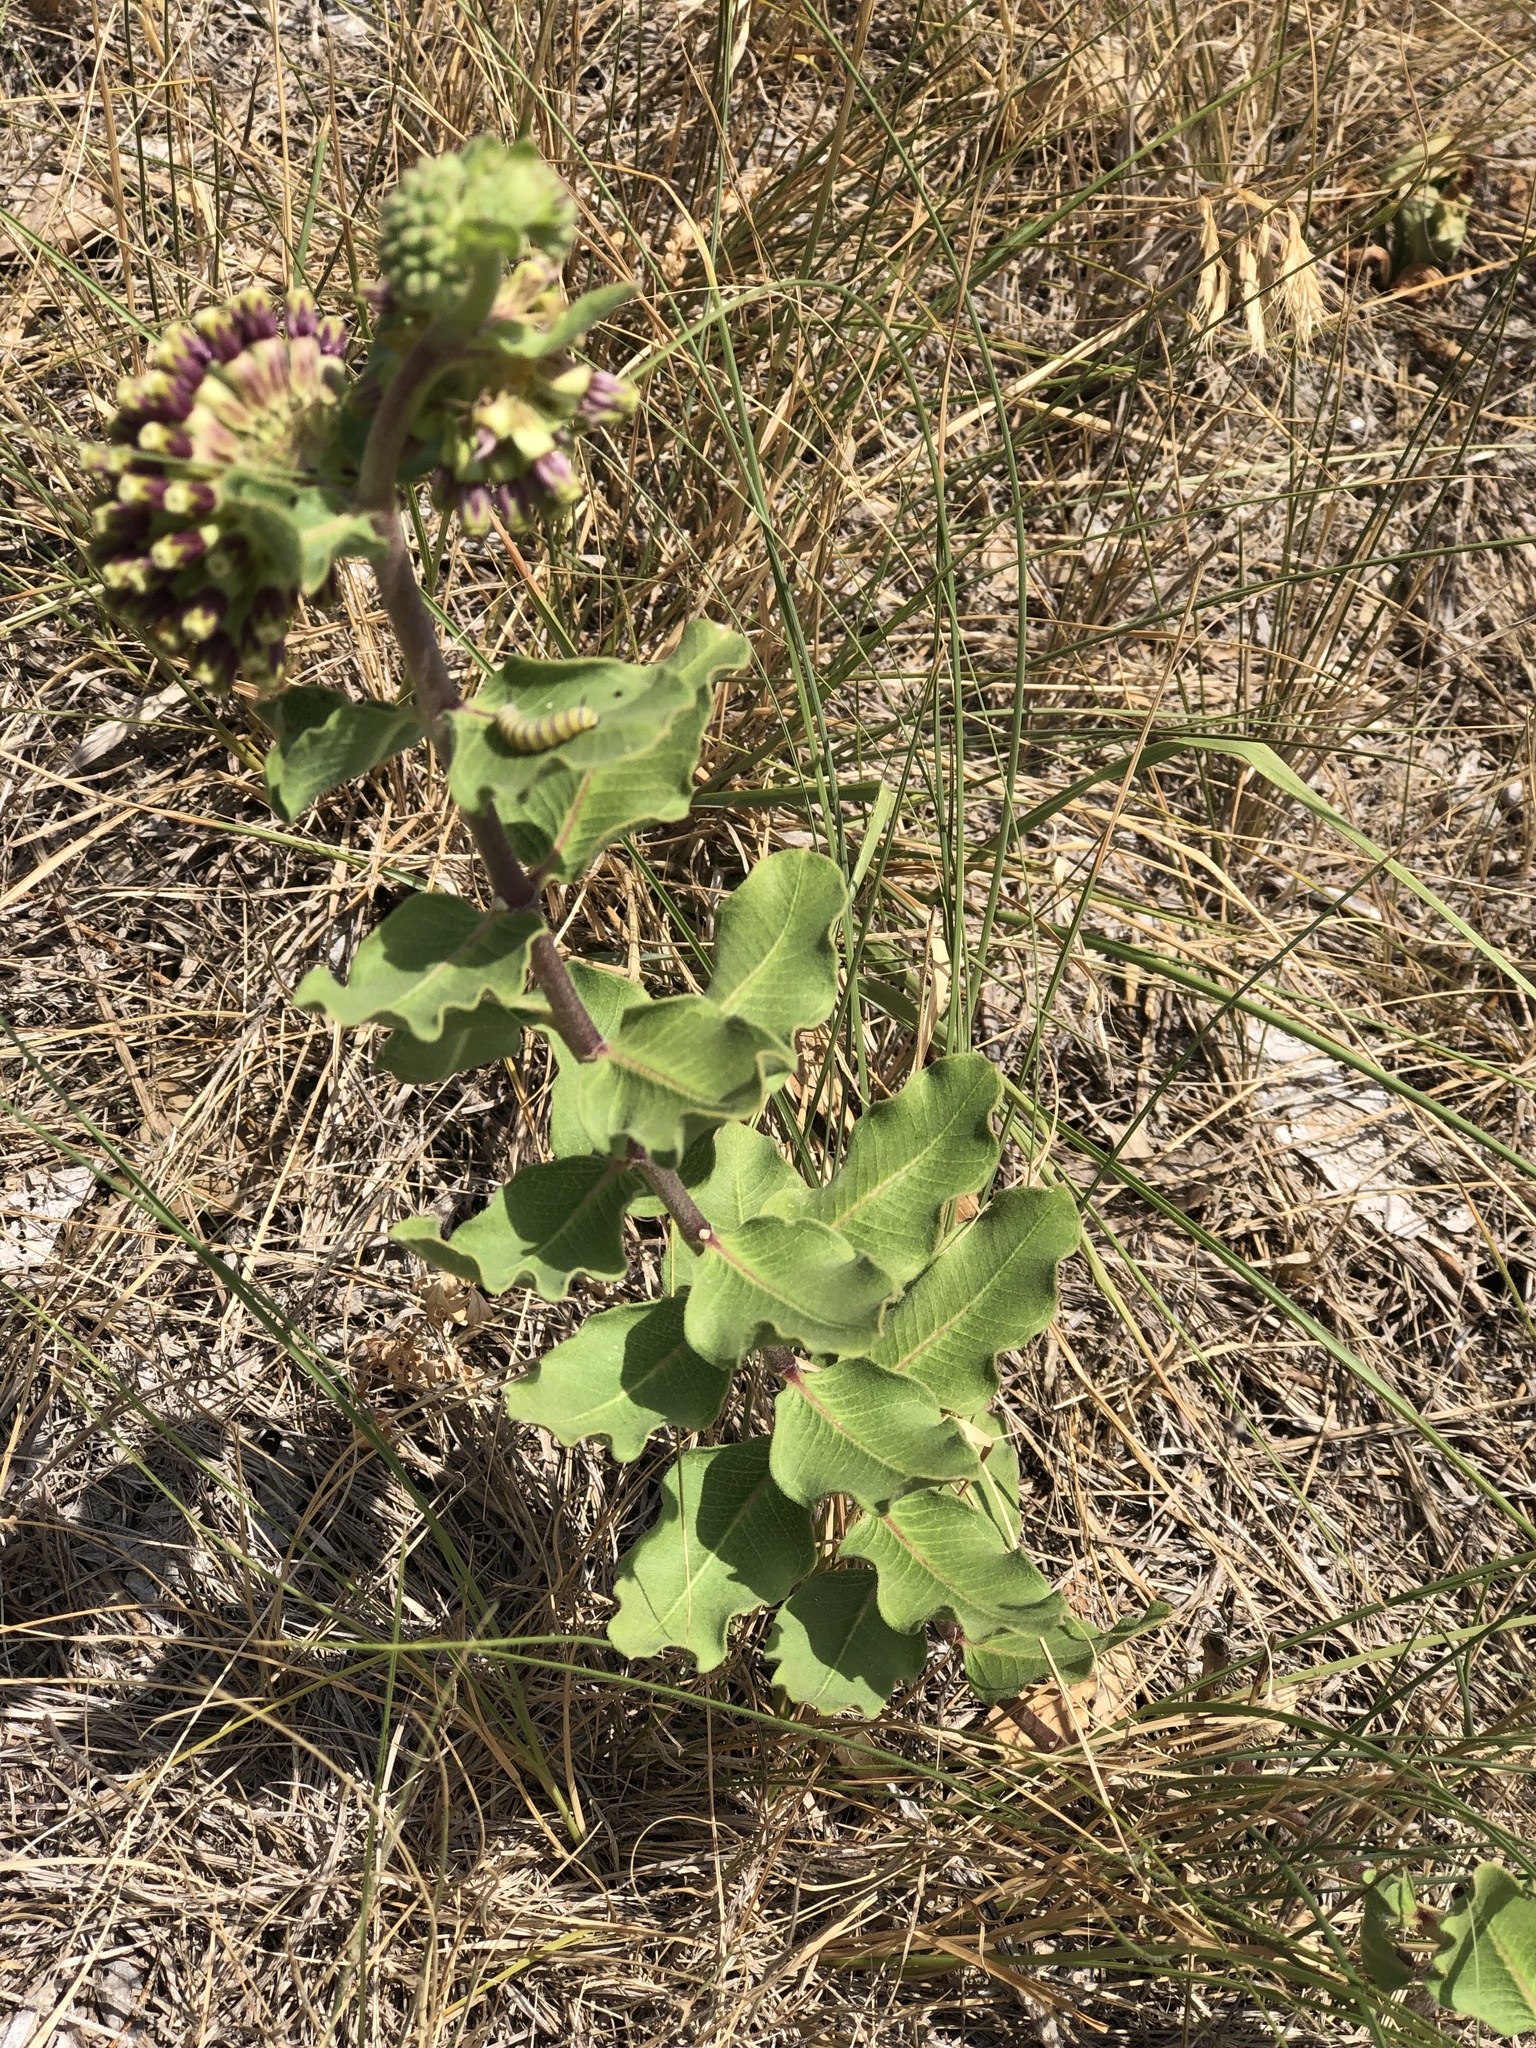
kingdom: Plantae
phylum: Tracheophyta
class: Magnoliopsida
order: Gentianales
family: Apocynaceae
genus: Asclepias
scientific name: Asclepias viridiflora
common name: Green comet milkweed
